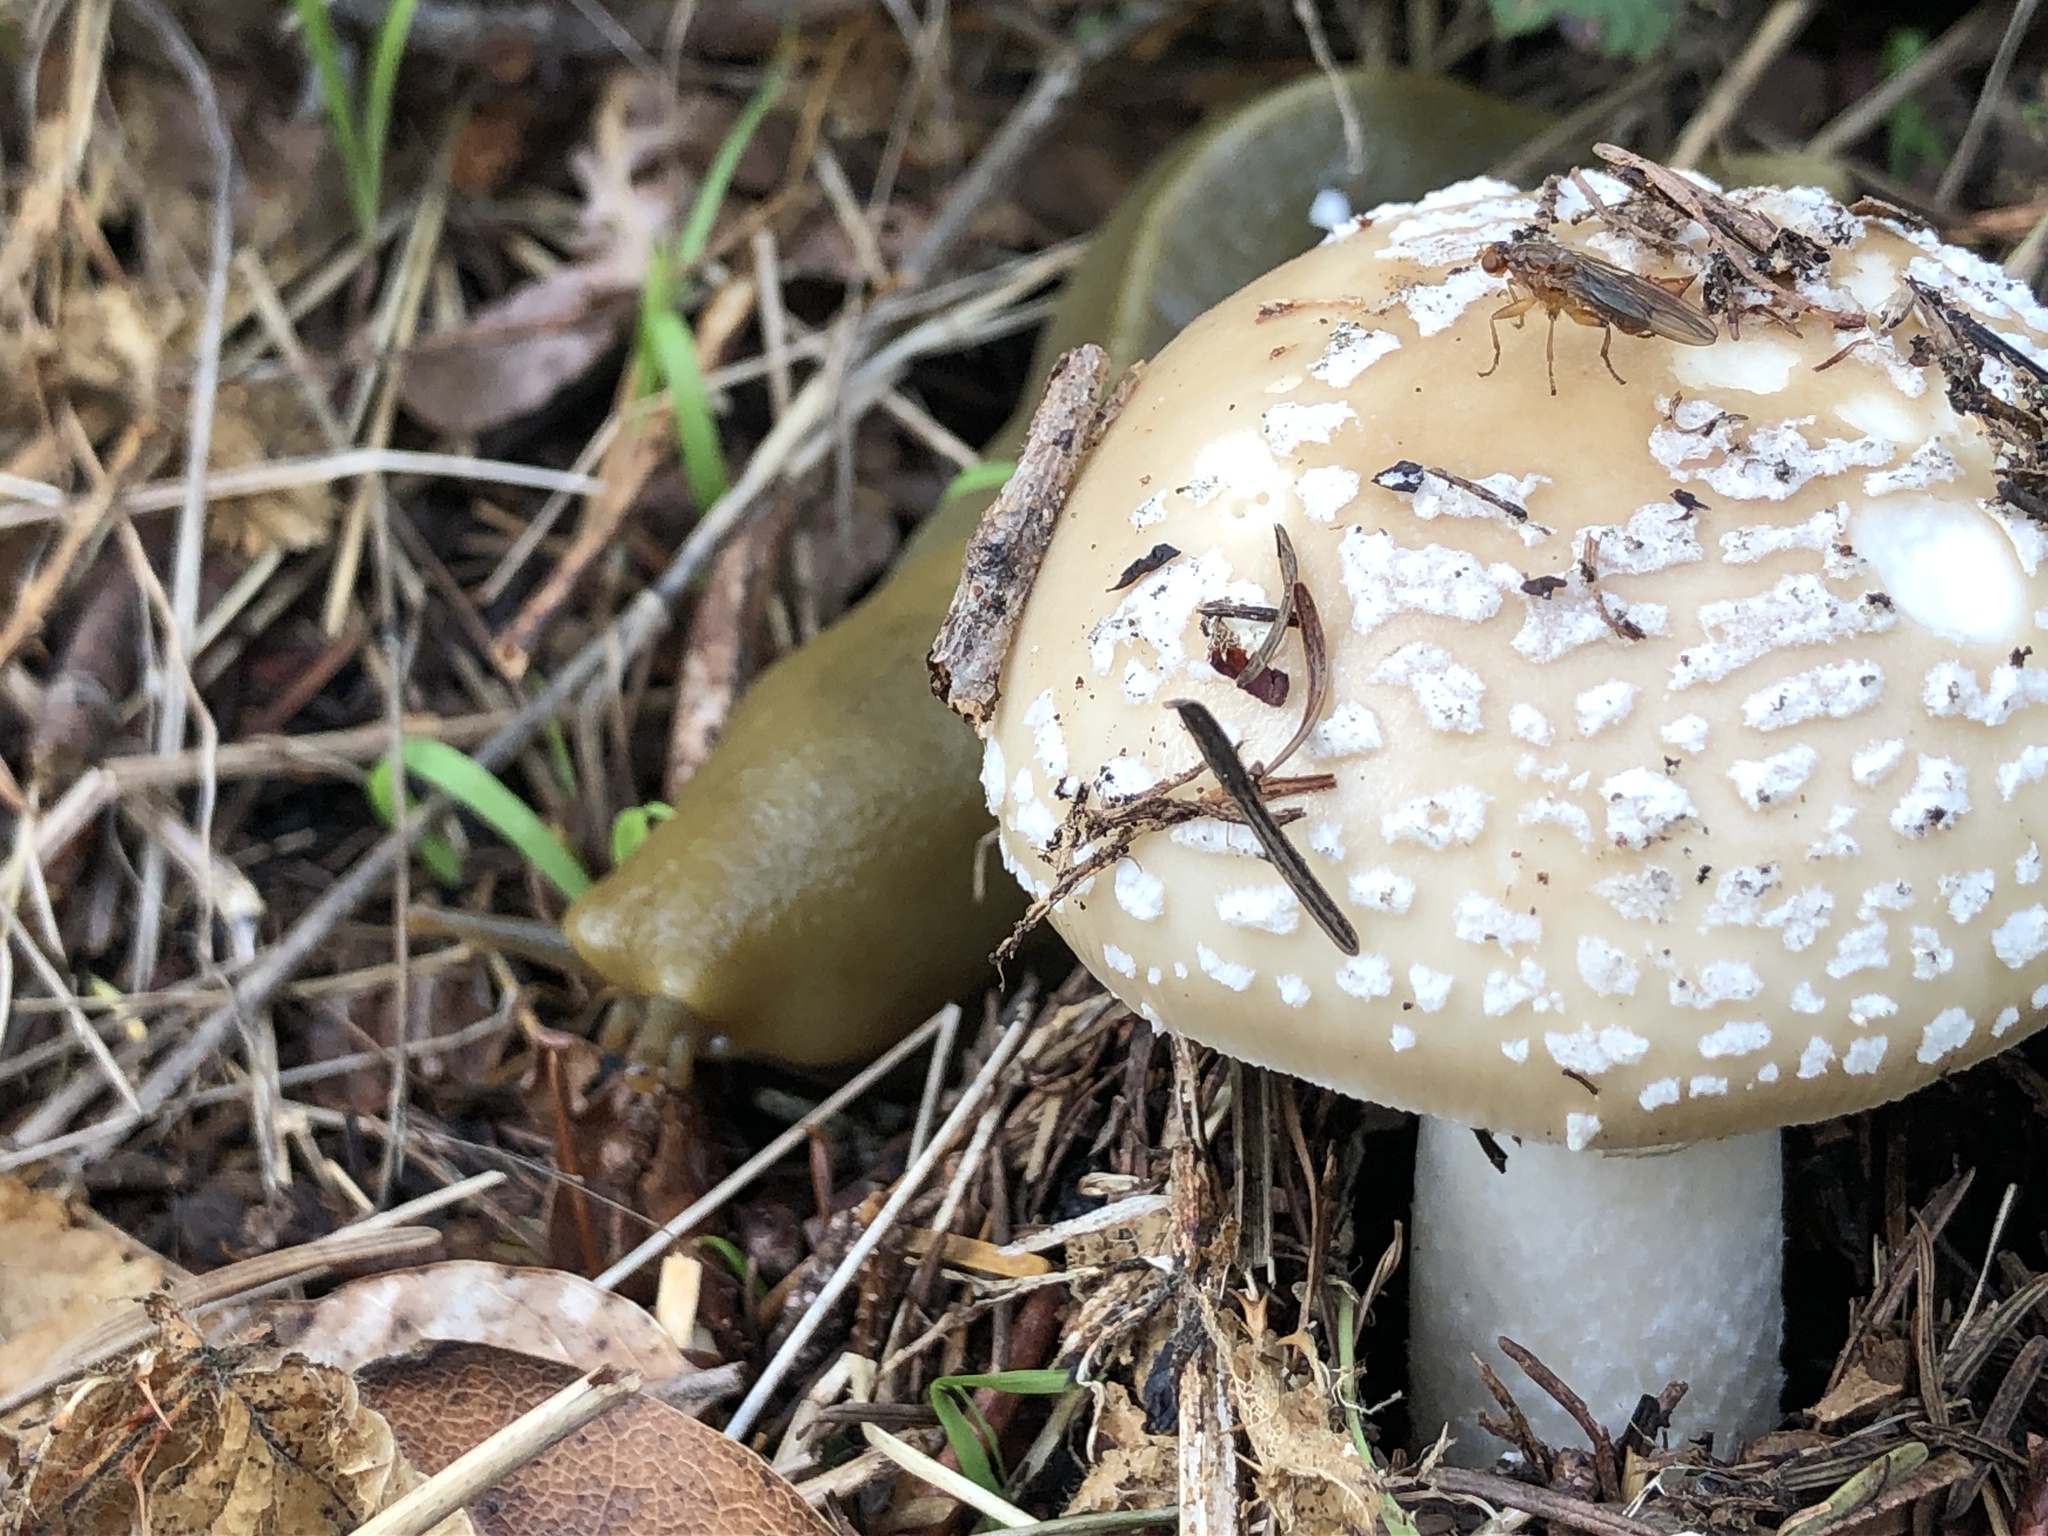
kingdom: Animalia
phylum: Mollusca
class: Gastropoda
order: Stylommatophora
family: Ariolimacidae
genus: Ariolimax
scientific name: Ariolimax buttoni
